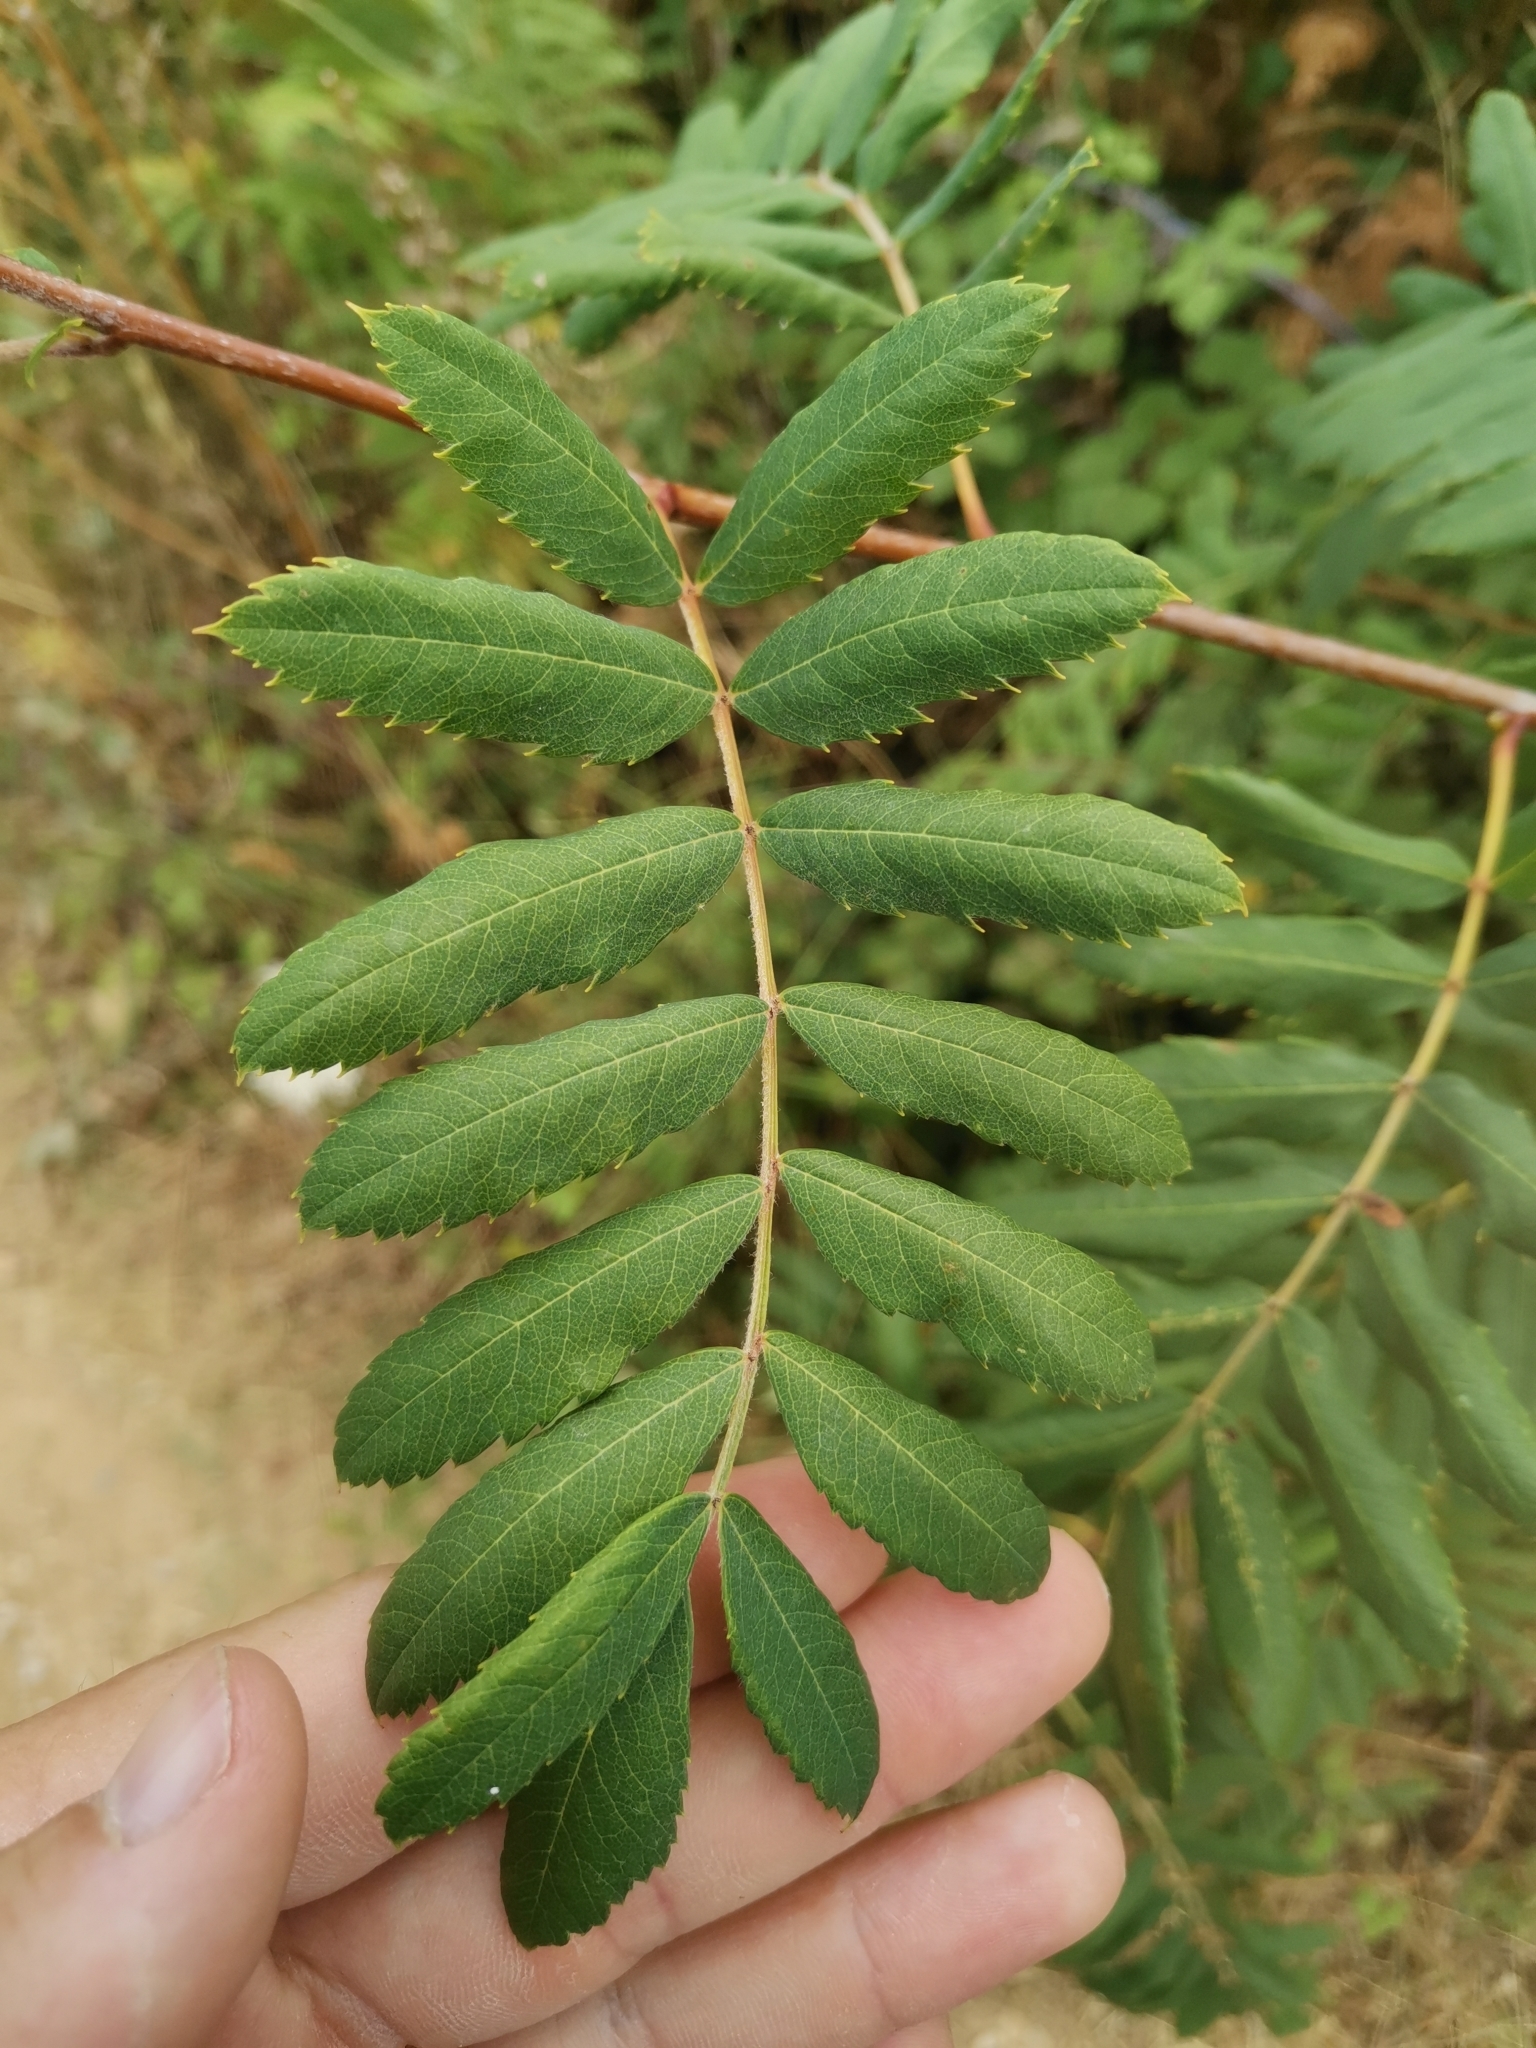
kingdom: Plantae
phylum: Tracheophyta
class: Magnoliopsida
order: Rosales
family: Rosaceae
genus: Cormus
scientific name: Cormus domestica
